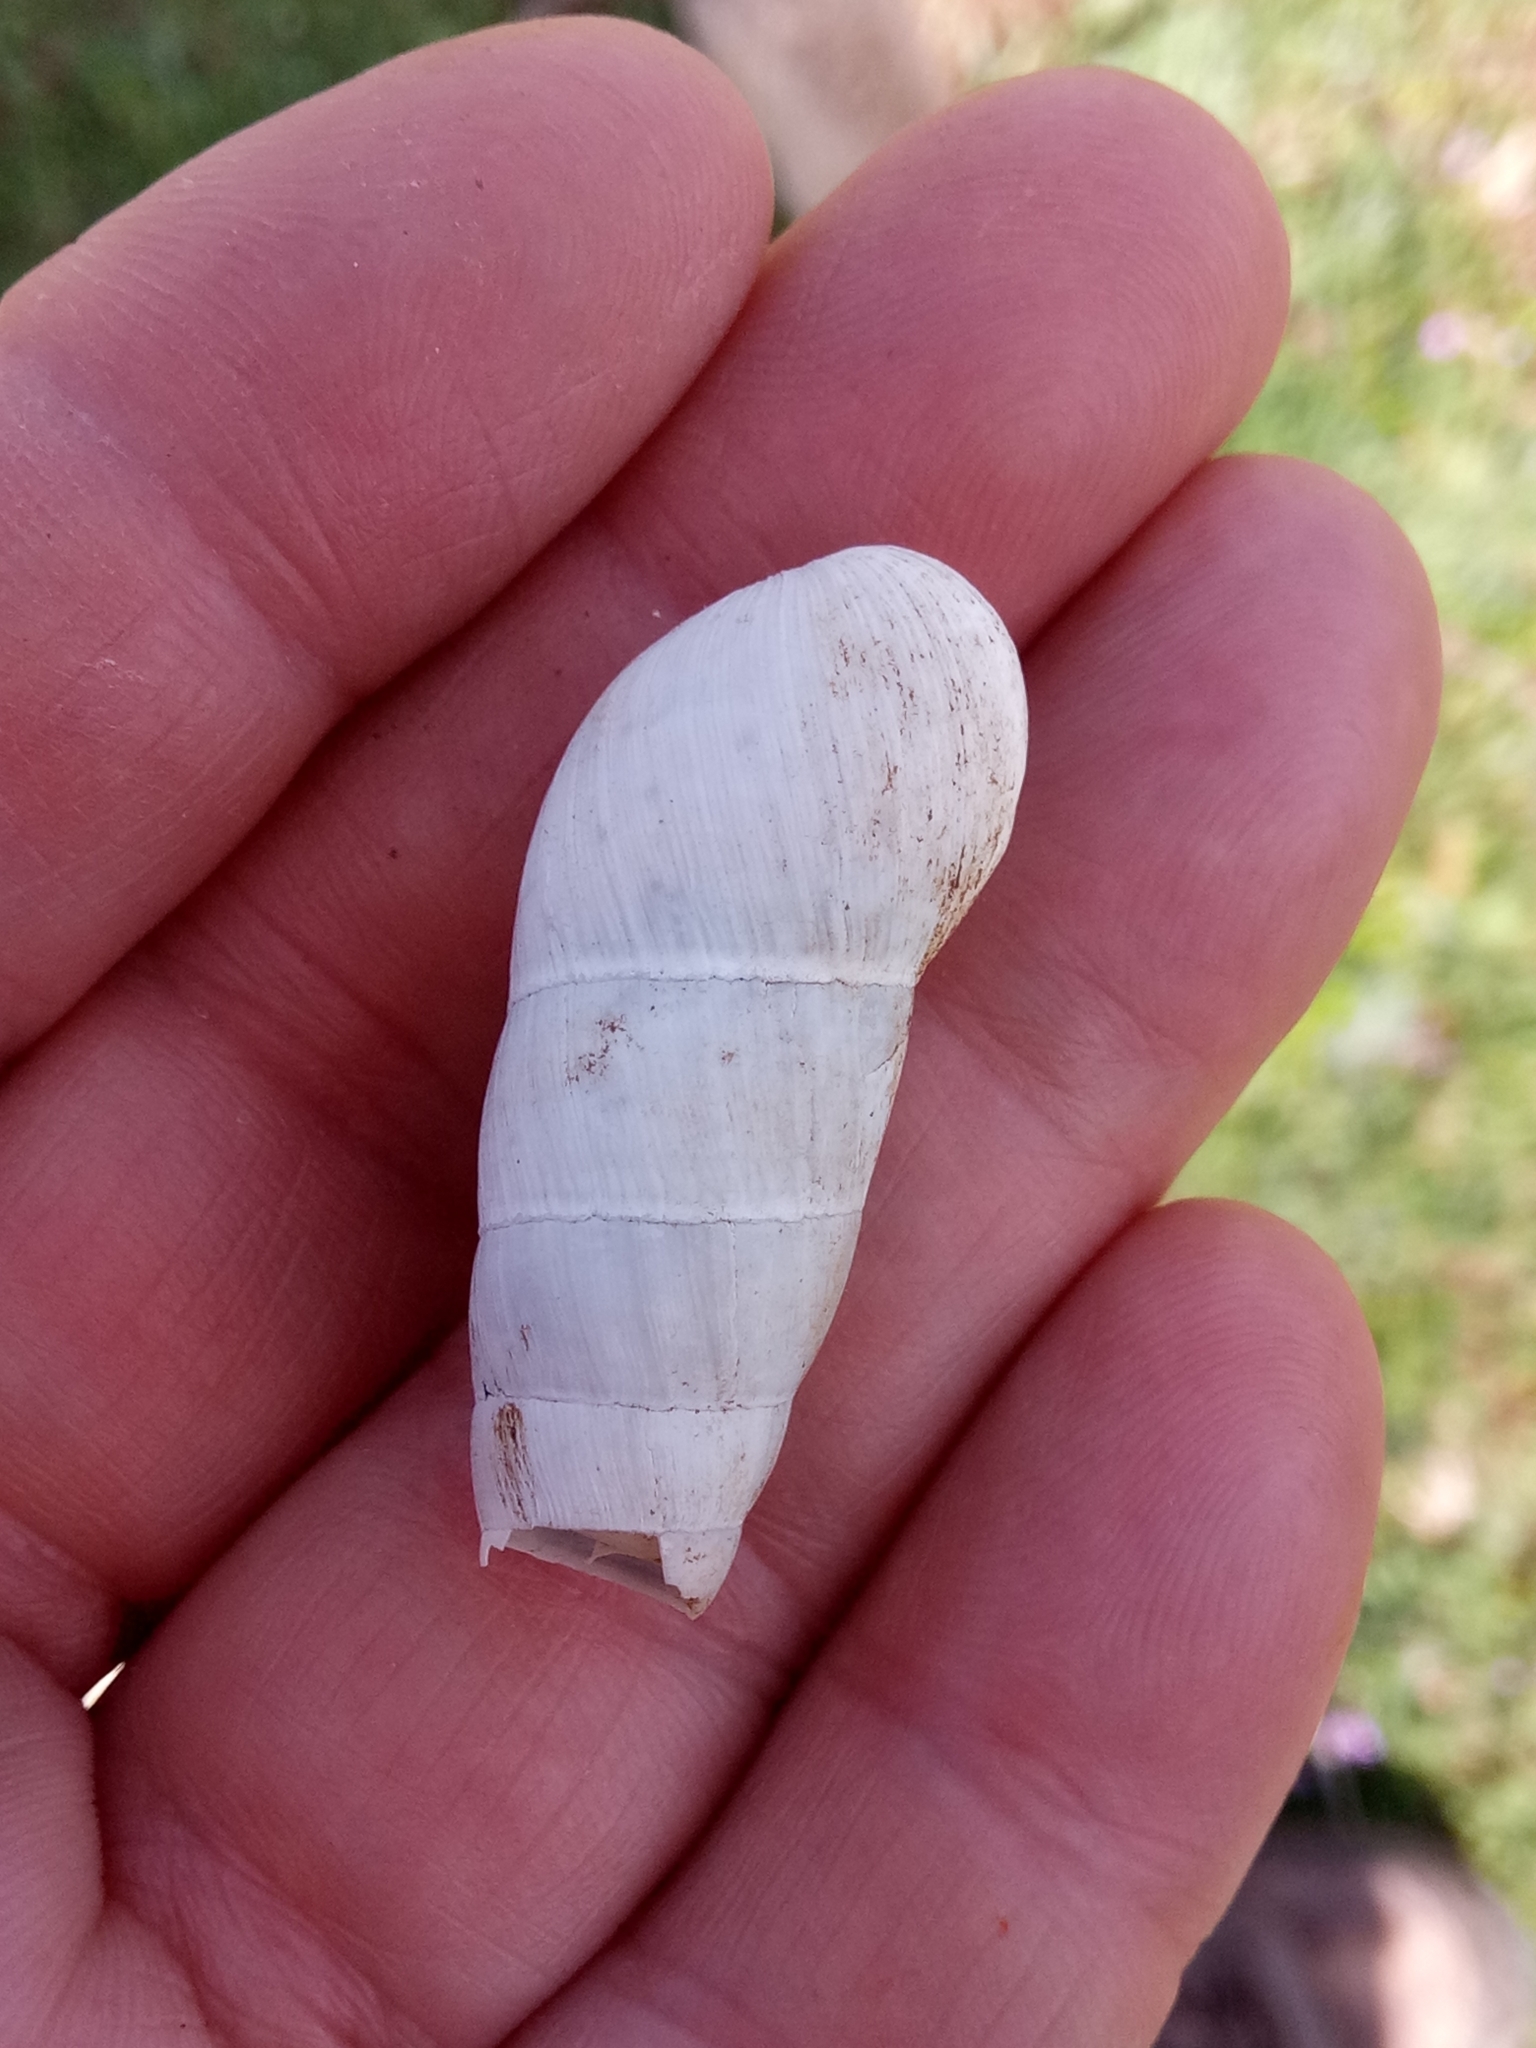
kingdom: Animalia
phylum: Mollusca
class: Gastropoda
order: Stylommatophora
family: Achatinidae
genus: Rumina
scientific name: Rumina decollata
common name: Decollate snail
